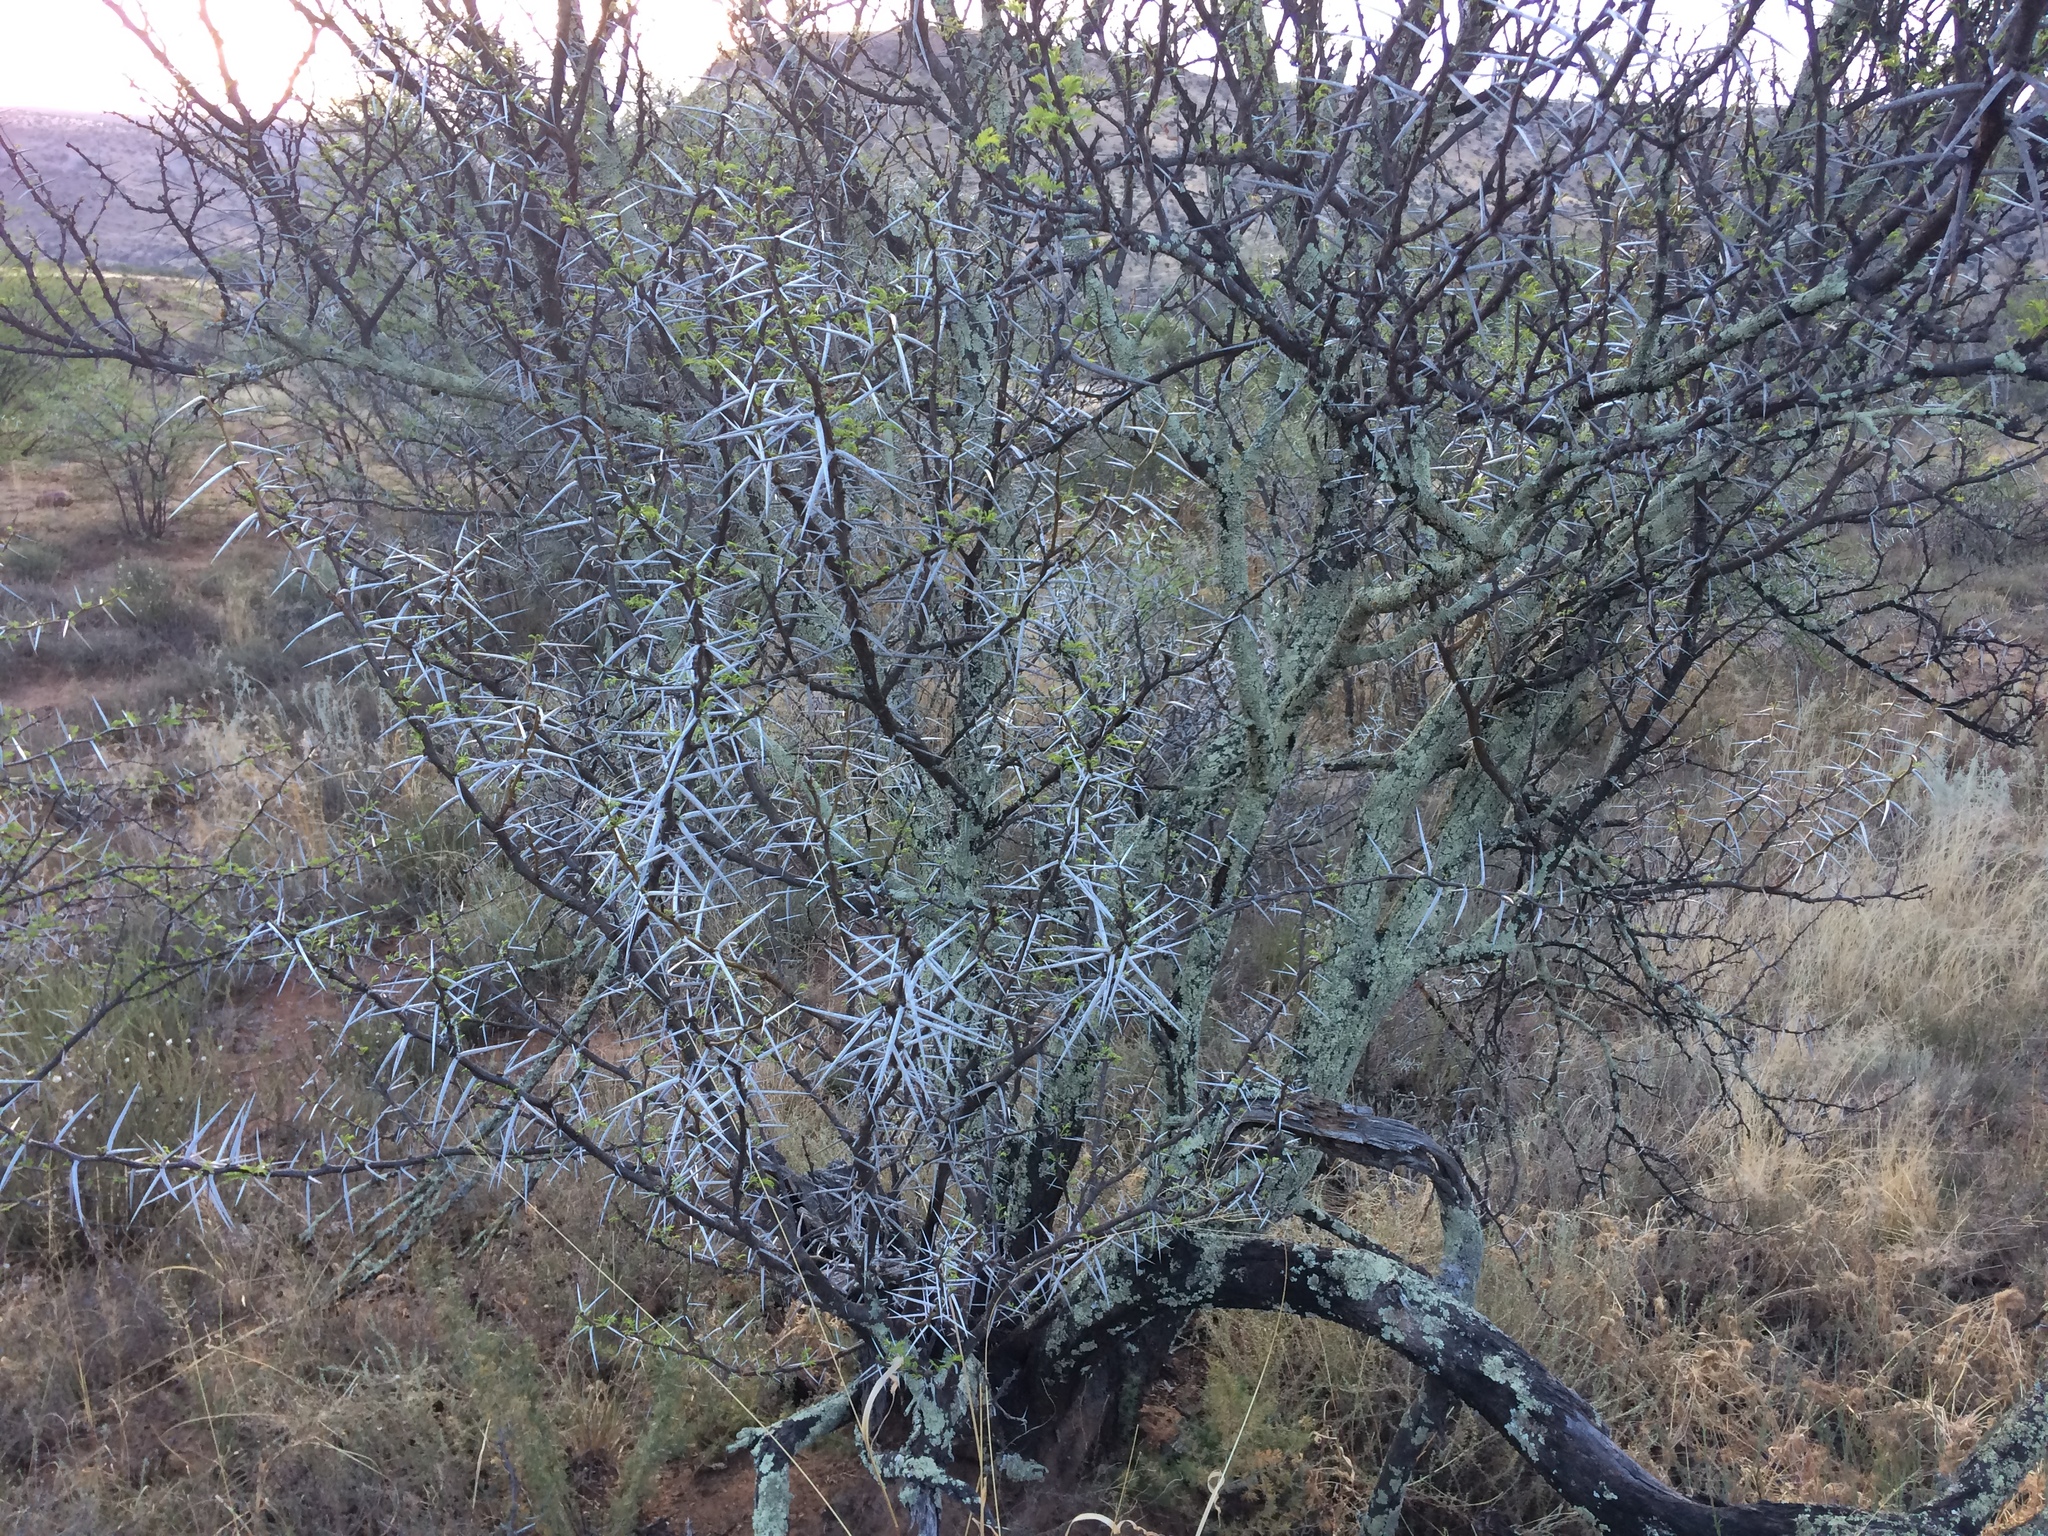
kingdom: Plantae
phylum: Tracheophyta
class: Magnoliopsida
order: Fabales
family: Fabaceae
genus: Vachellia
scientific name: Vachellia karroo
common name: Sweet thorn
